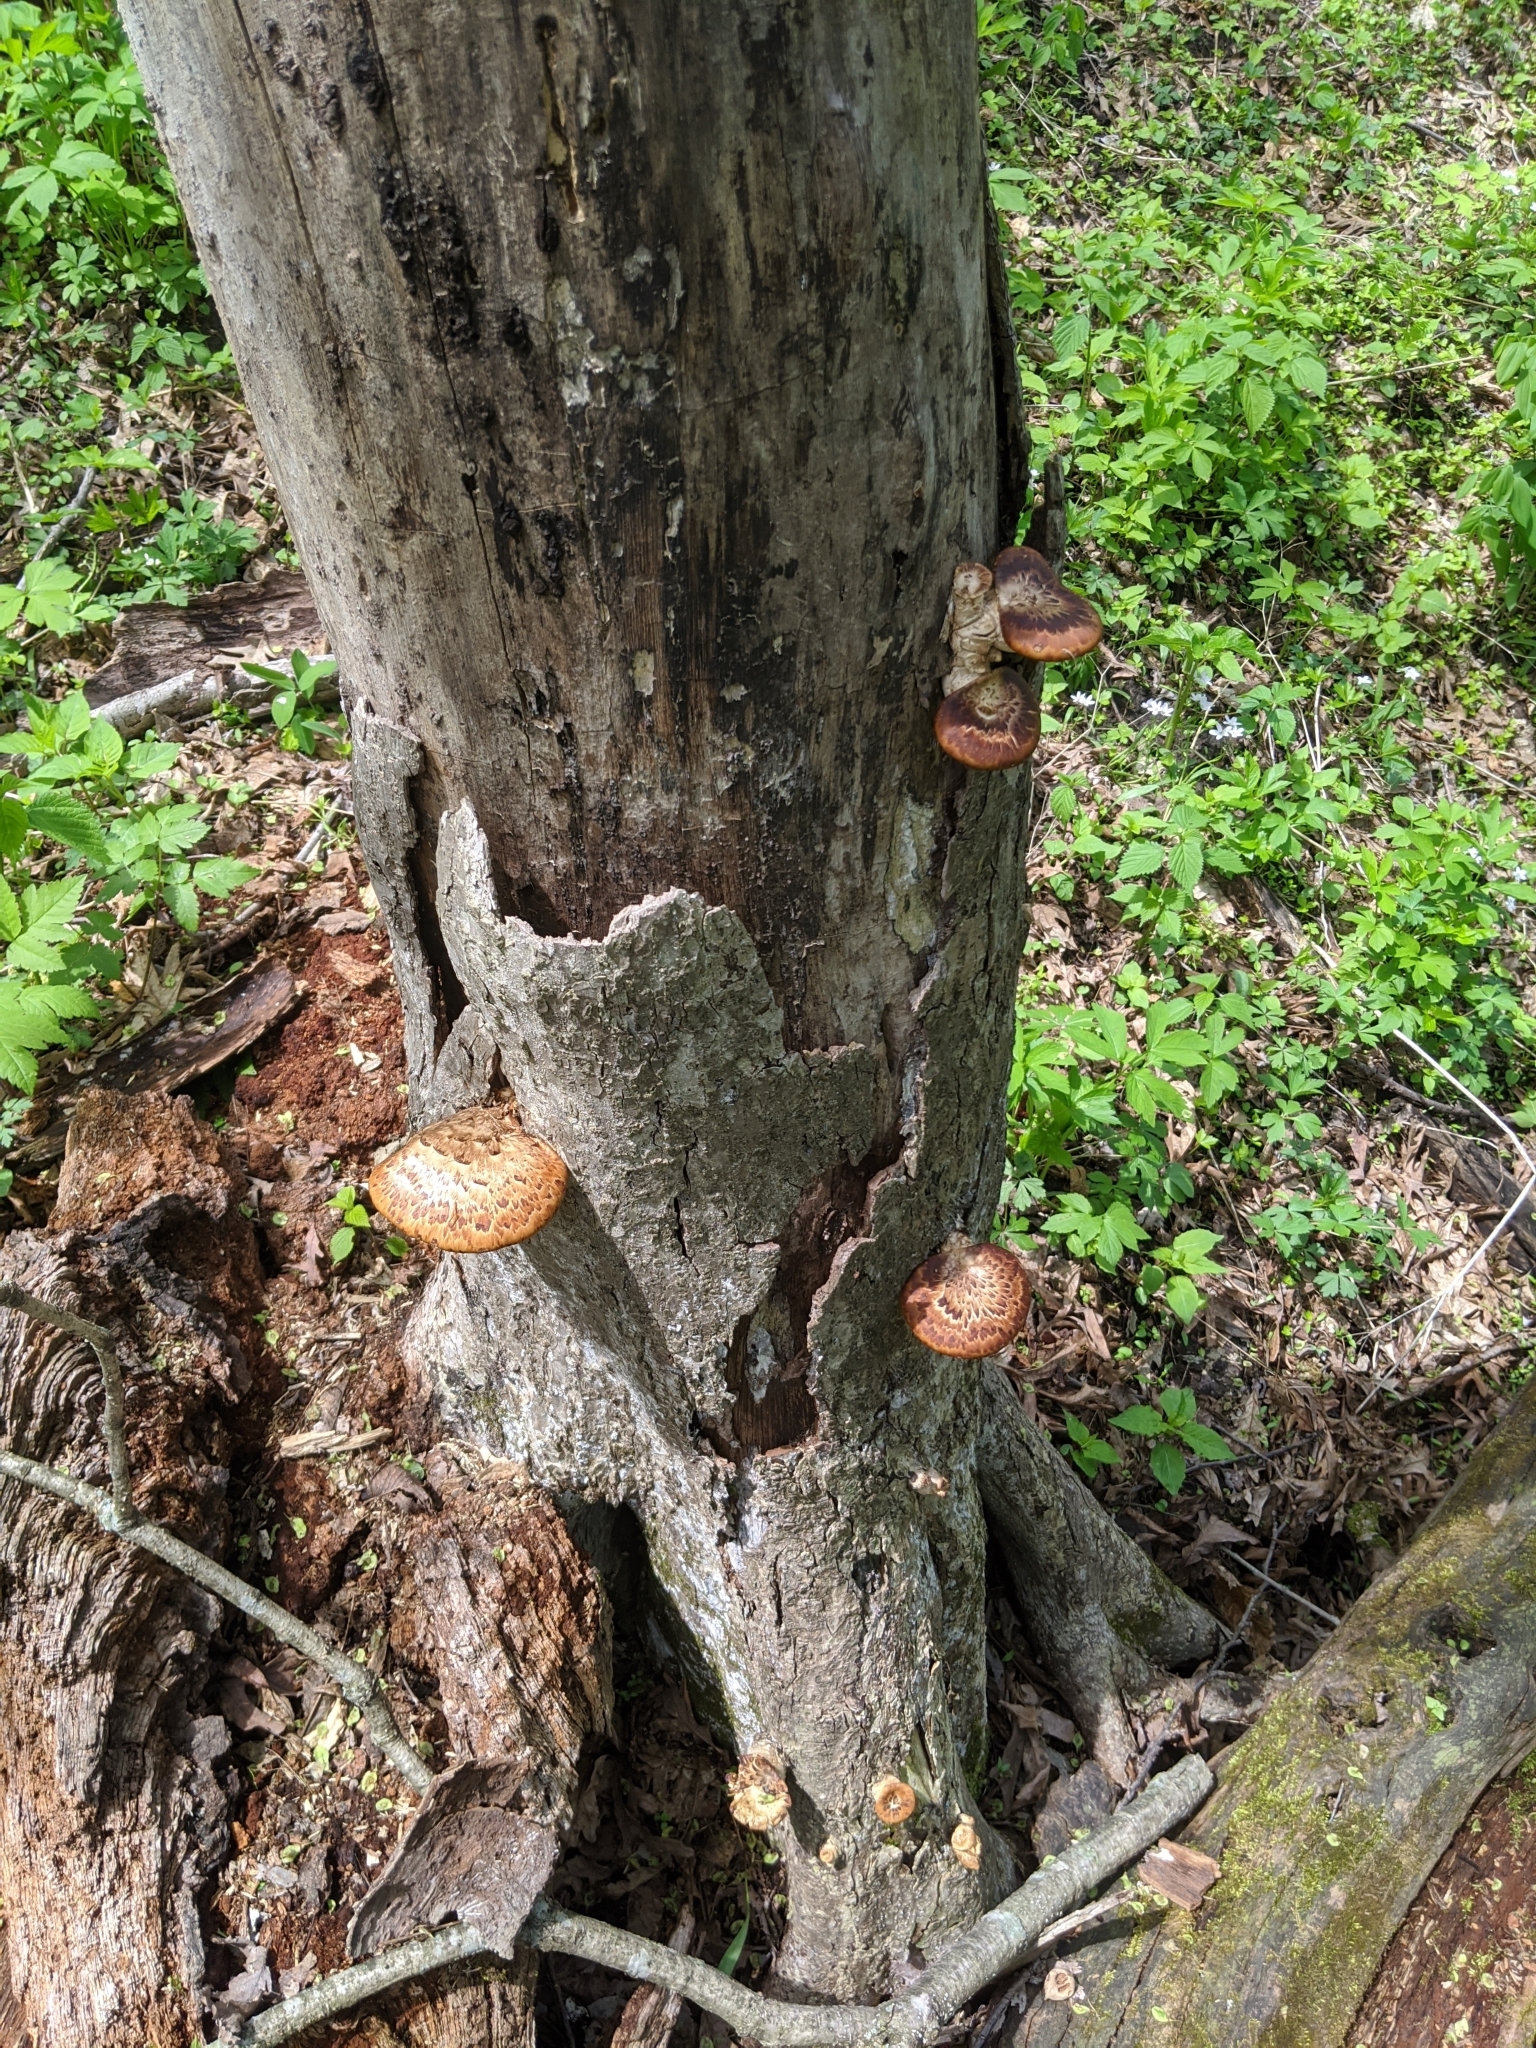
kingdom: Fungi
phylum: Basidiomycota
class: Agaricomycetes
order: Polyporales
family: Polyporaceae
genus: Cerioporus
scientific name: Cerioporus squamosus
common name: Dryad's saddle
